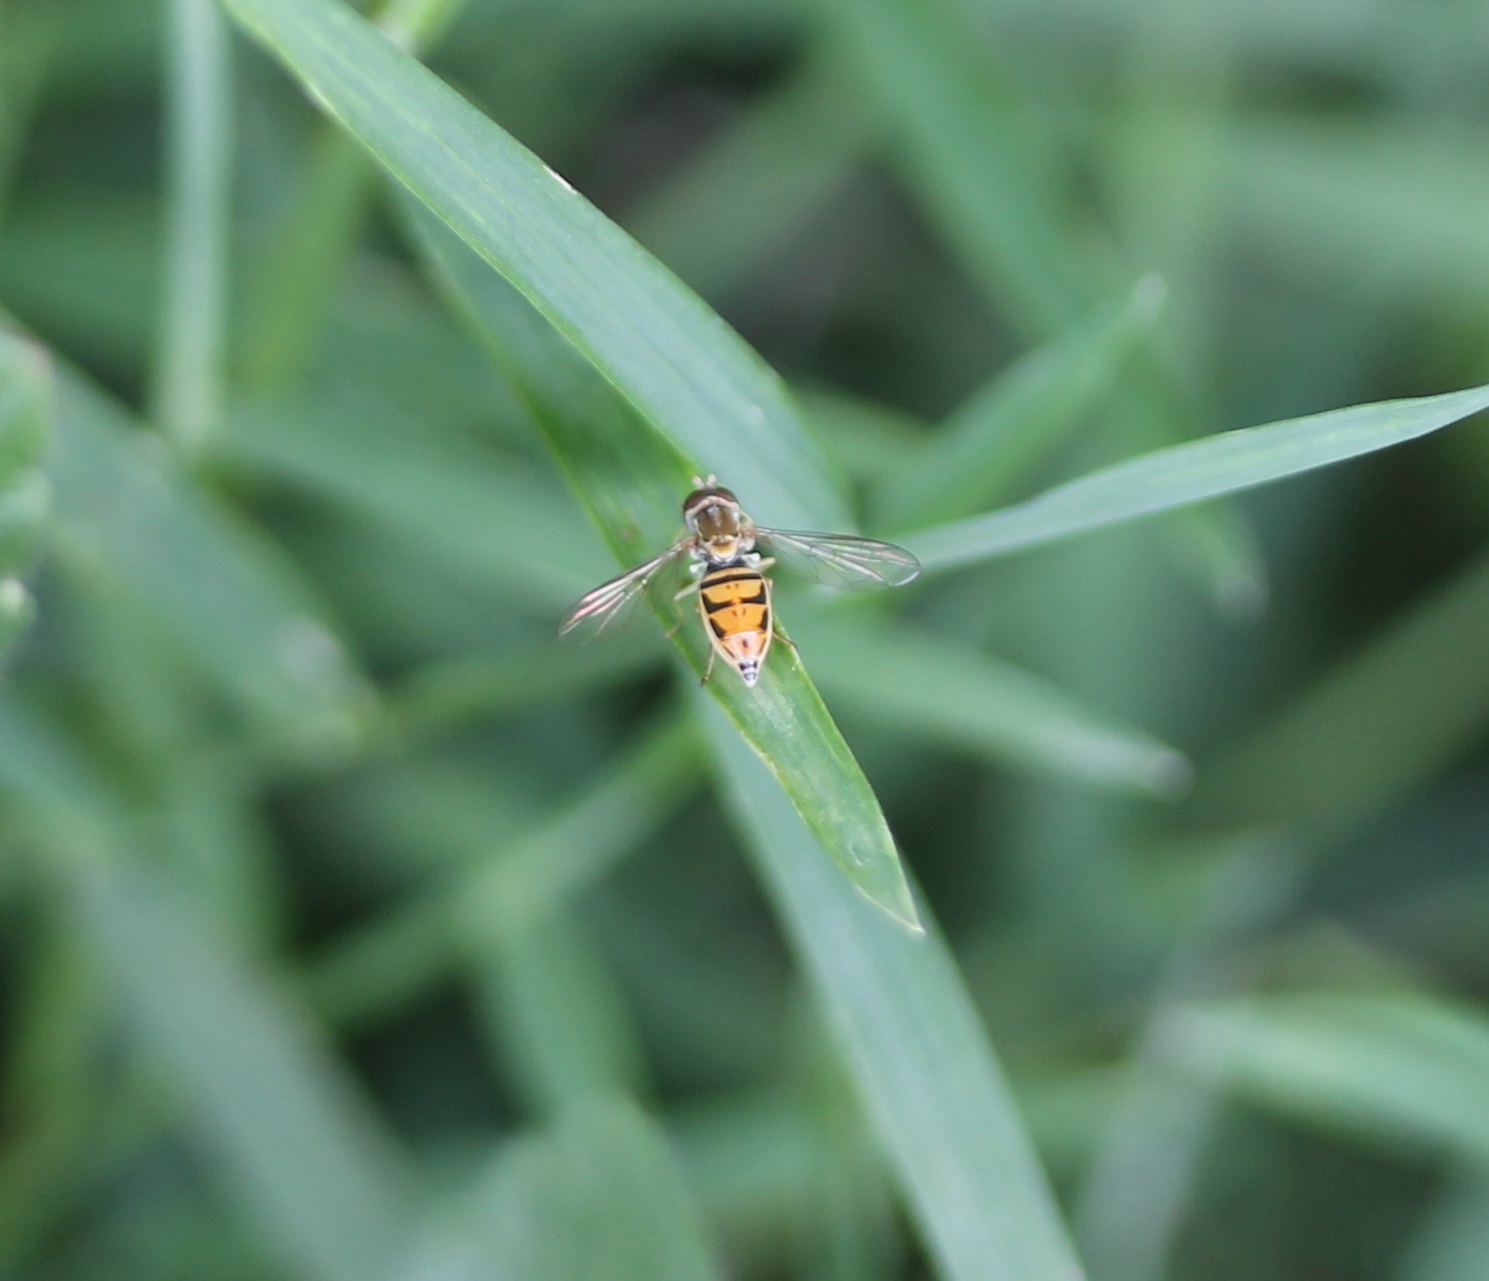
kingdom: Animalia
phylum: Arthropoda
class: Insecta
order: Diptera
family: Syrphidae
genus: Toxomerus
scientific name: Toxomerus marginatus
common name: Syrphid fly
